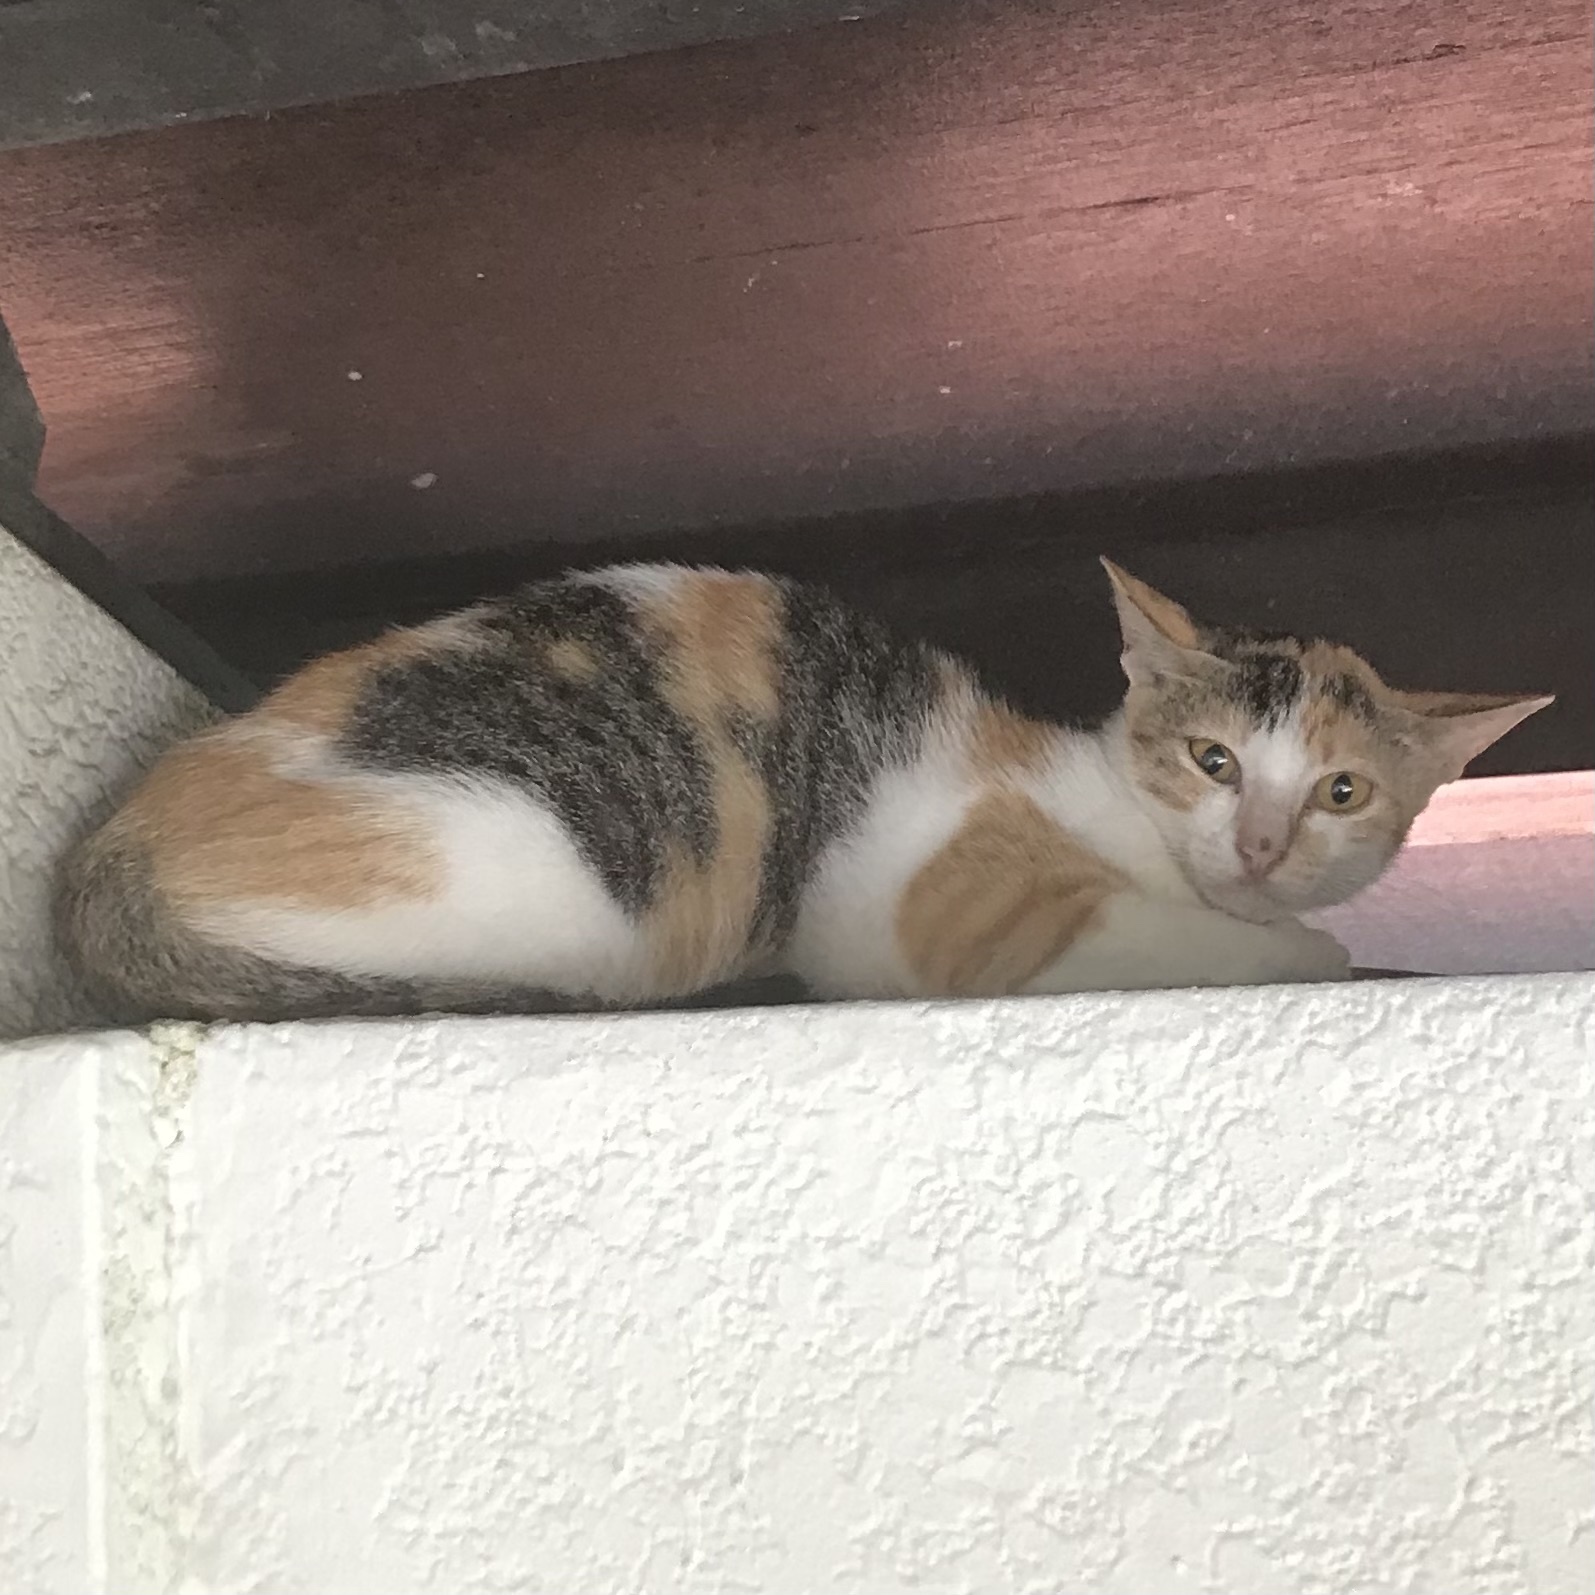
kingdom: Animalia
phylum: Chordata
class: Mammalia
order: Carnivora
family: Felidae
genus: Felis
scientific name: Felis catus
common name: Domestic cat
